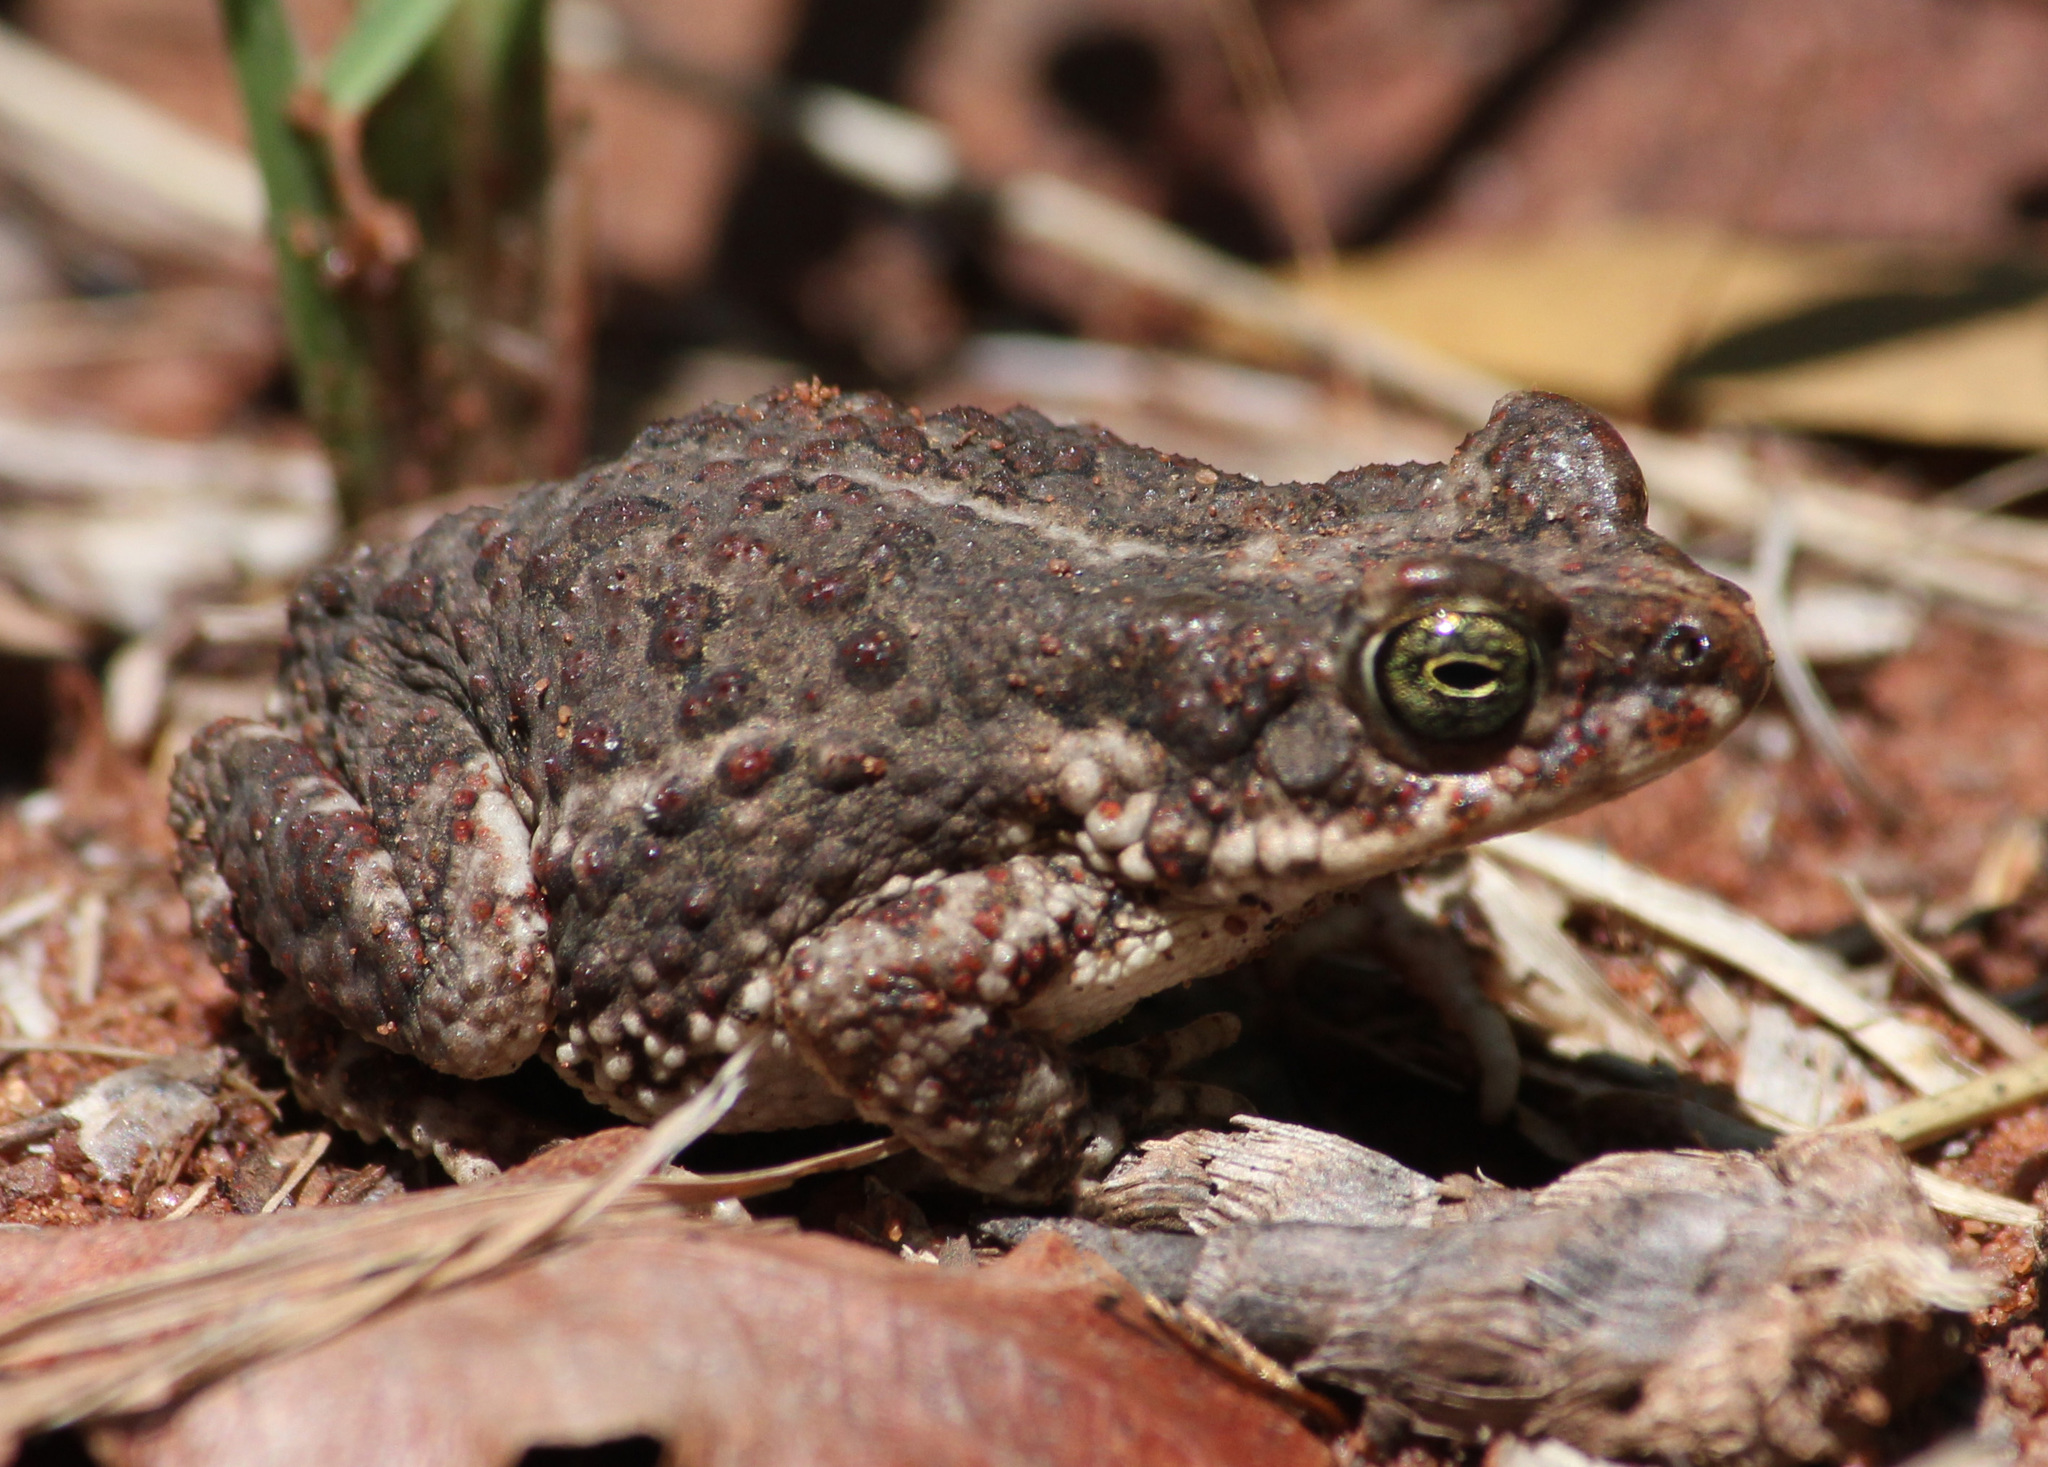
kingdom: Animalia
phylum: Chordata
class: Amphibia
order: Anura
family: Bufonidae
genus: Poyntonophrynus
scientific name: Poyntonophrynus fenoulheti
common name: Fenoulhet's toad
